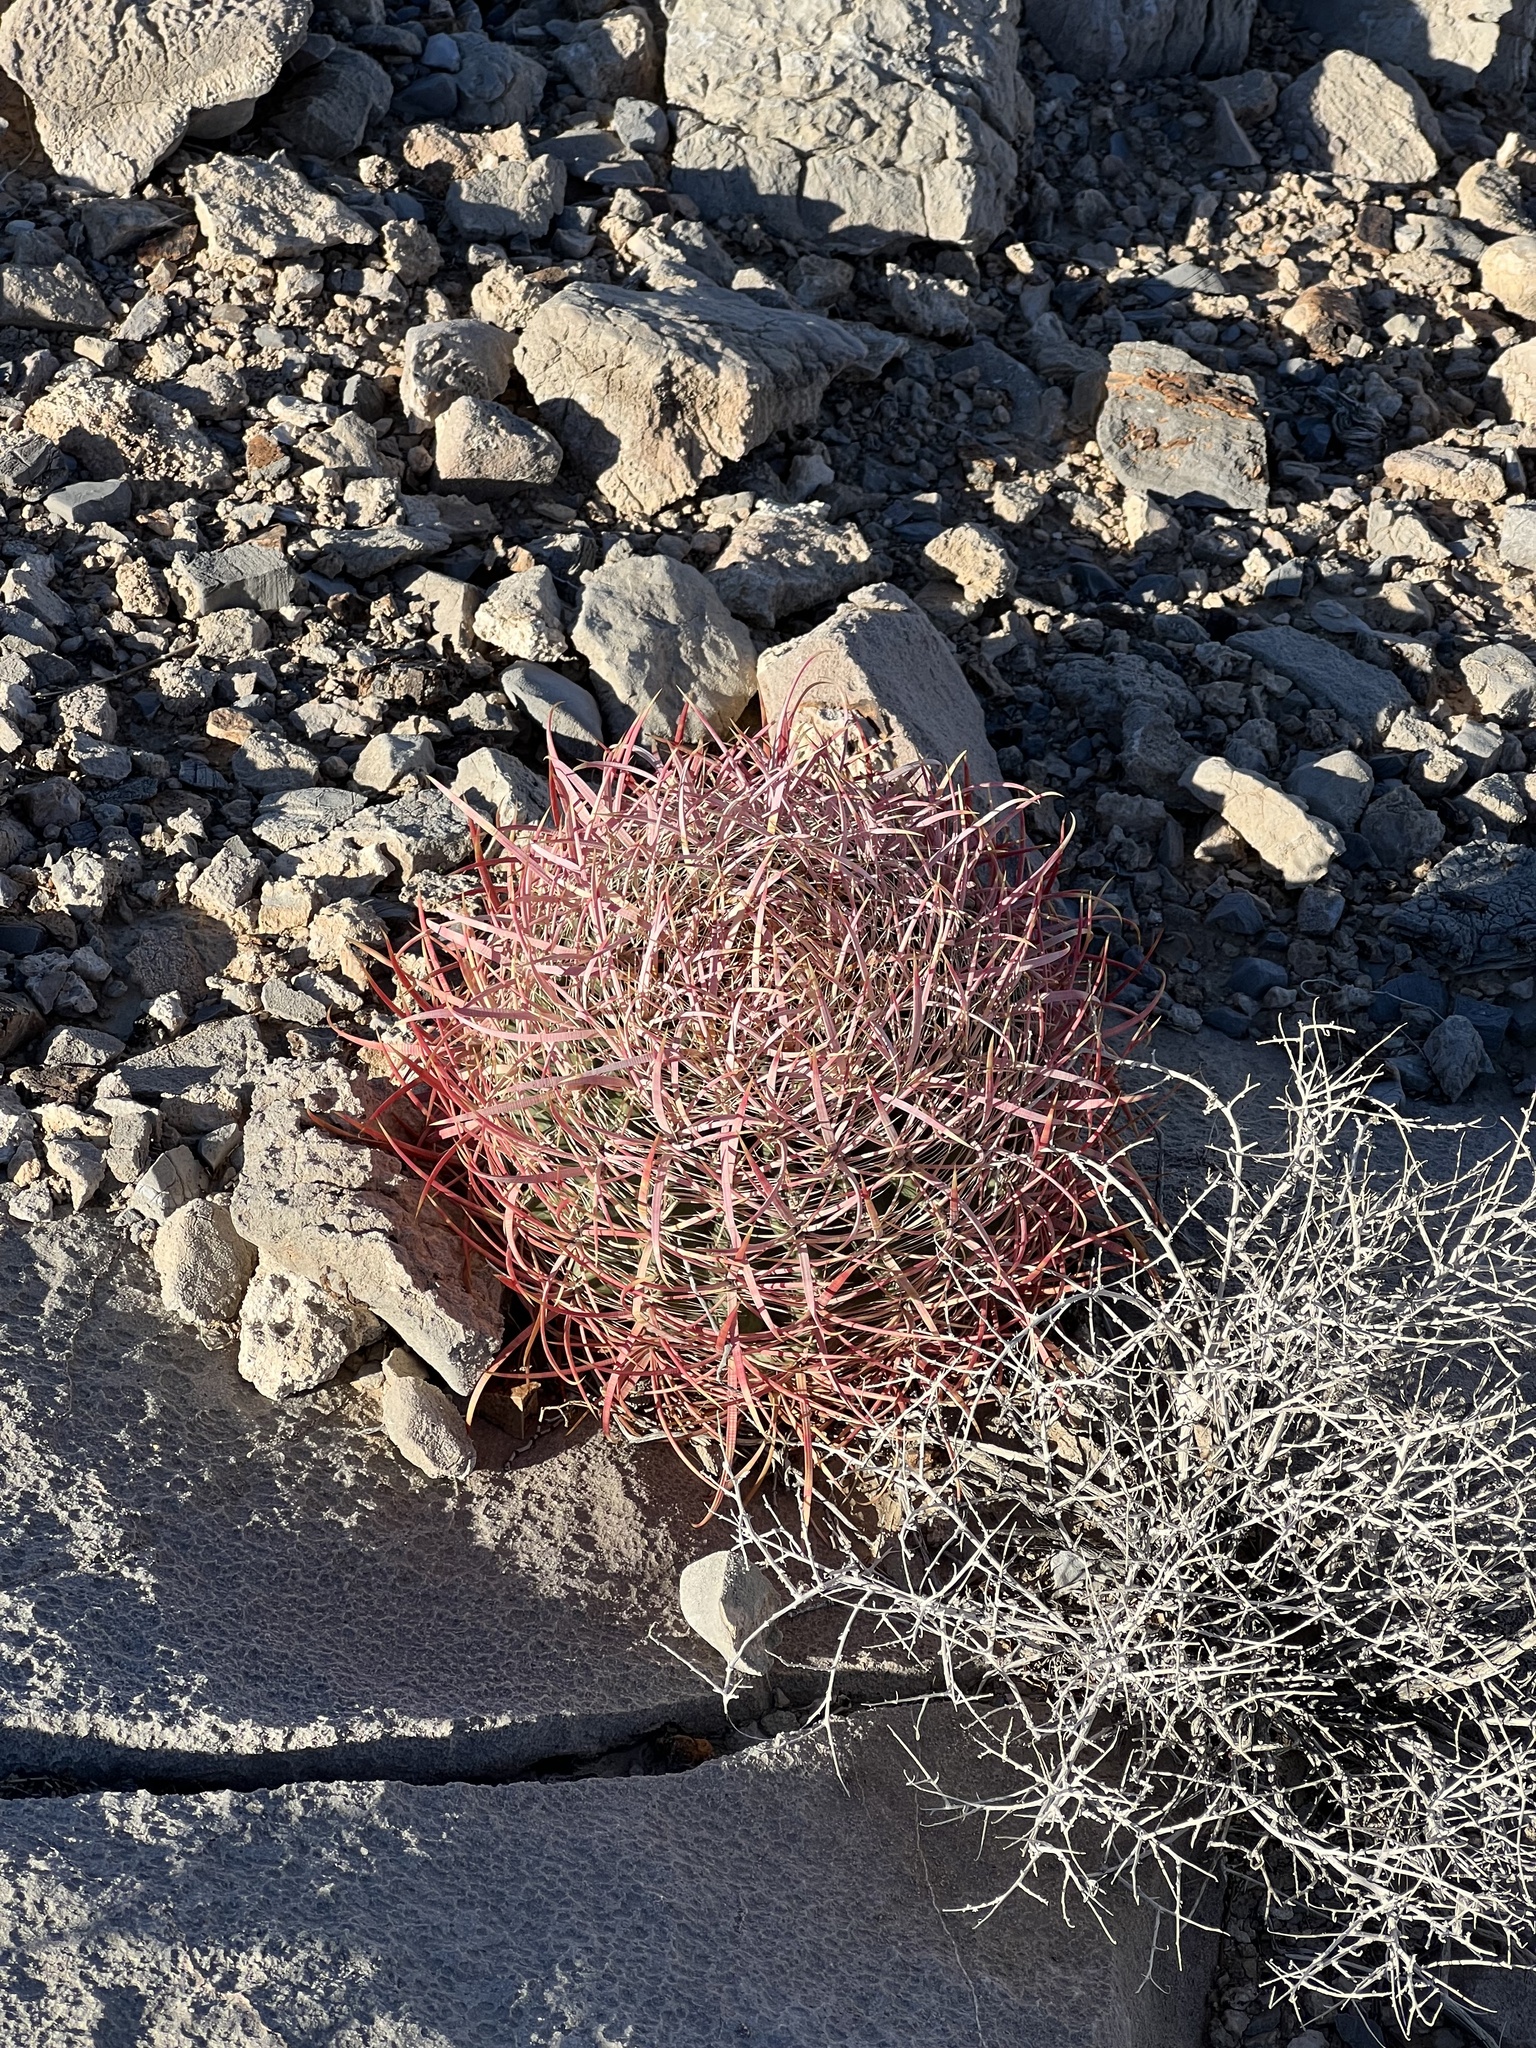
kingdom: Plantae
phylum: Tracheophyta
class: Magnoliopsida
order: Caryophyllales
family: Cactaceae
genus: Ferocactus
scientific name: Ferocactus cylindraceus
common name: California barrel cactus
